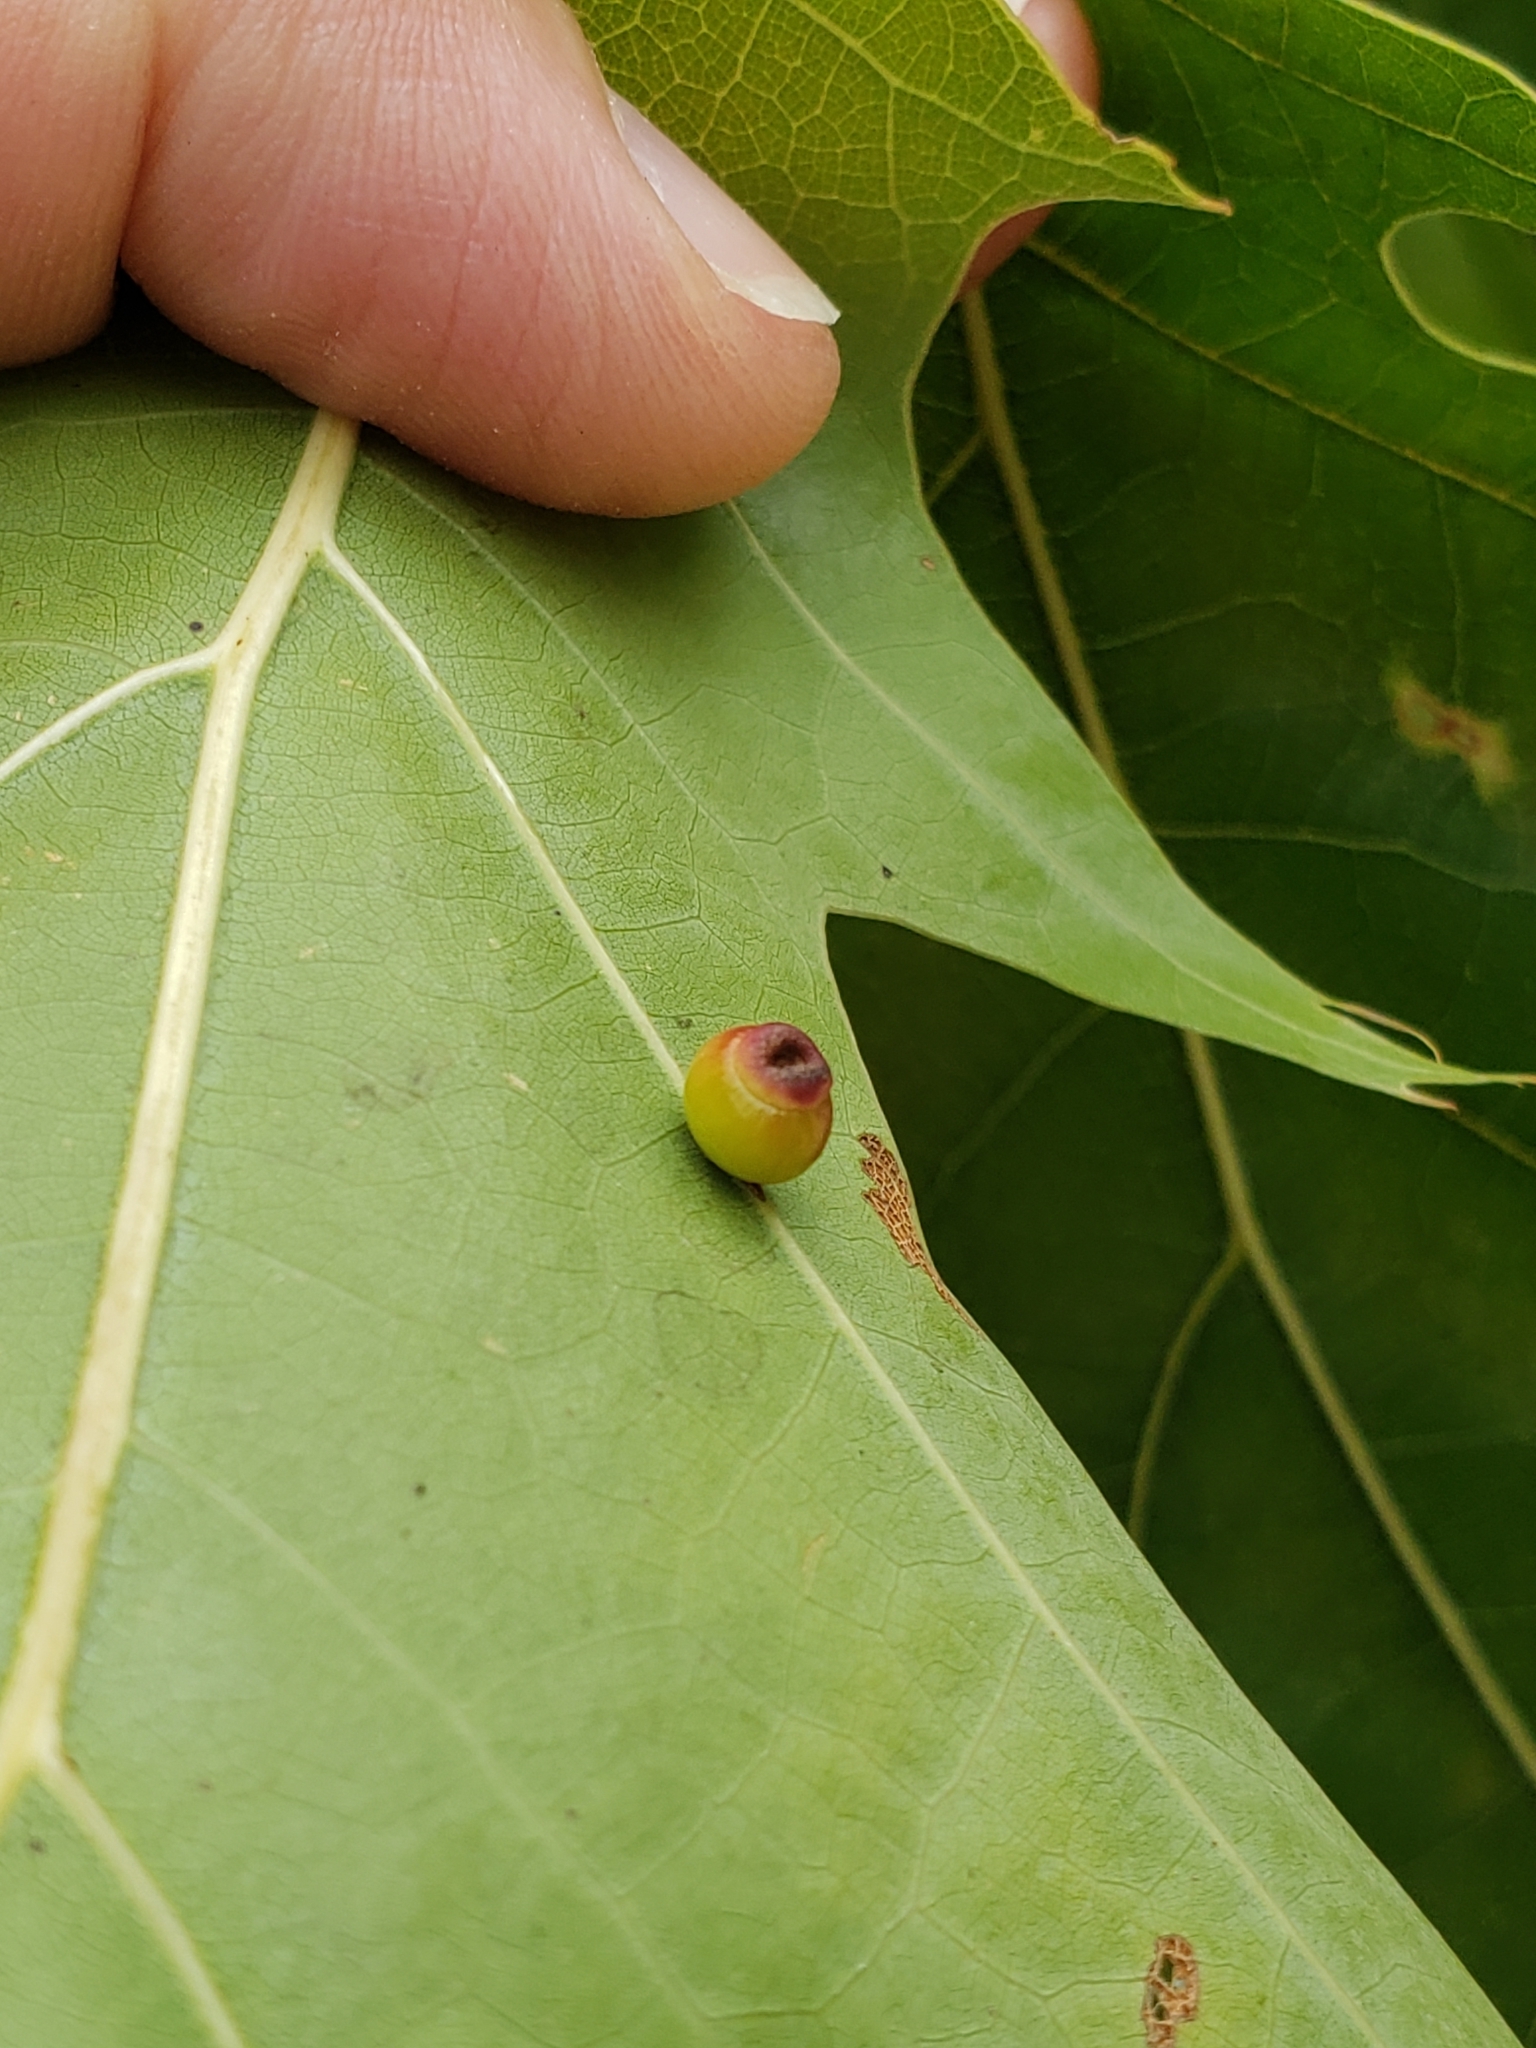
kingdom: Animalia
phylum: Arthropoda
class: Insecta
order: Hymenoptera
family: Cynipidae
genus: Kokkocynips
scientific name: Kokkocynips rileyi
